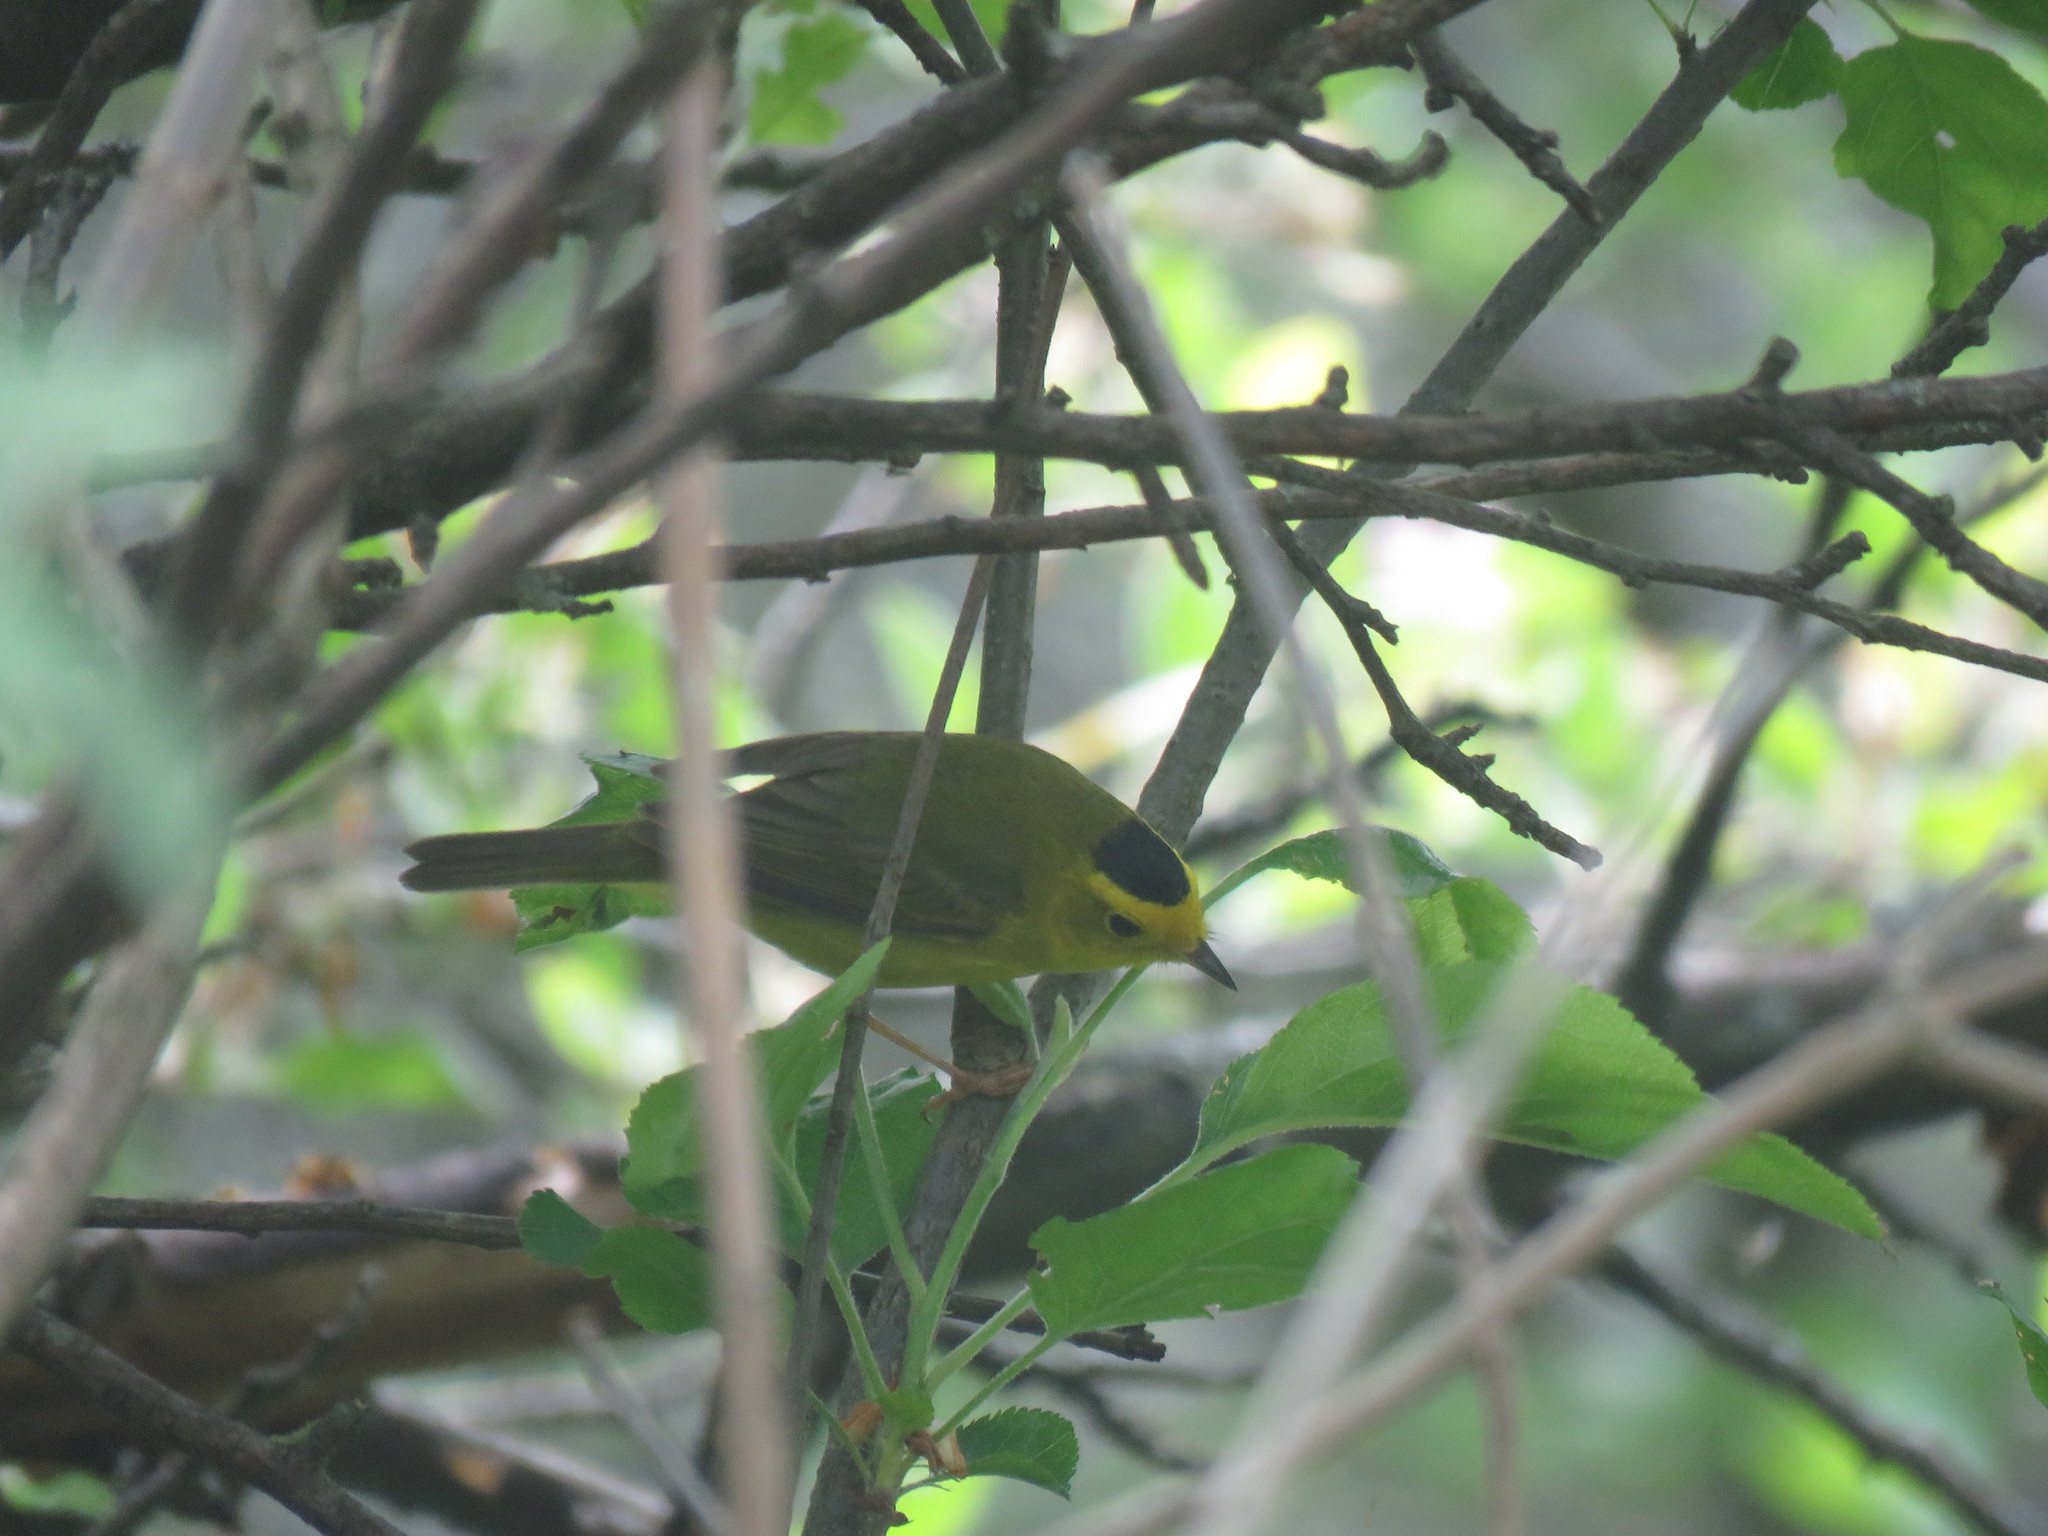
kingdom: Animalia
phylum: Chordata
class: Aves
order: Passeriformes
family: Parulidae
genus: Cardellina
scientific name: Cardellina pusilla
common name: Wilson's warbler
